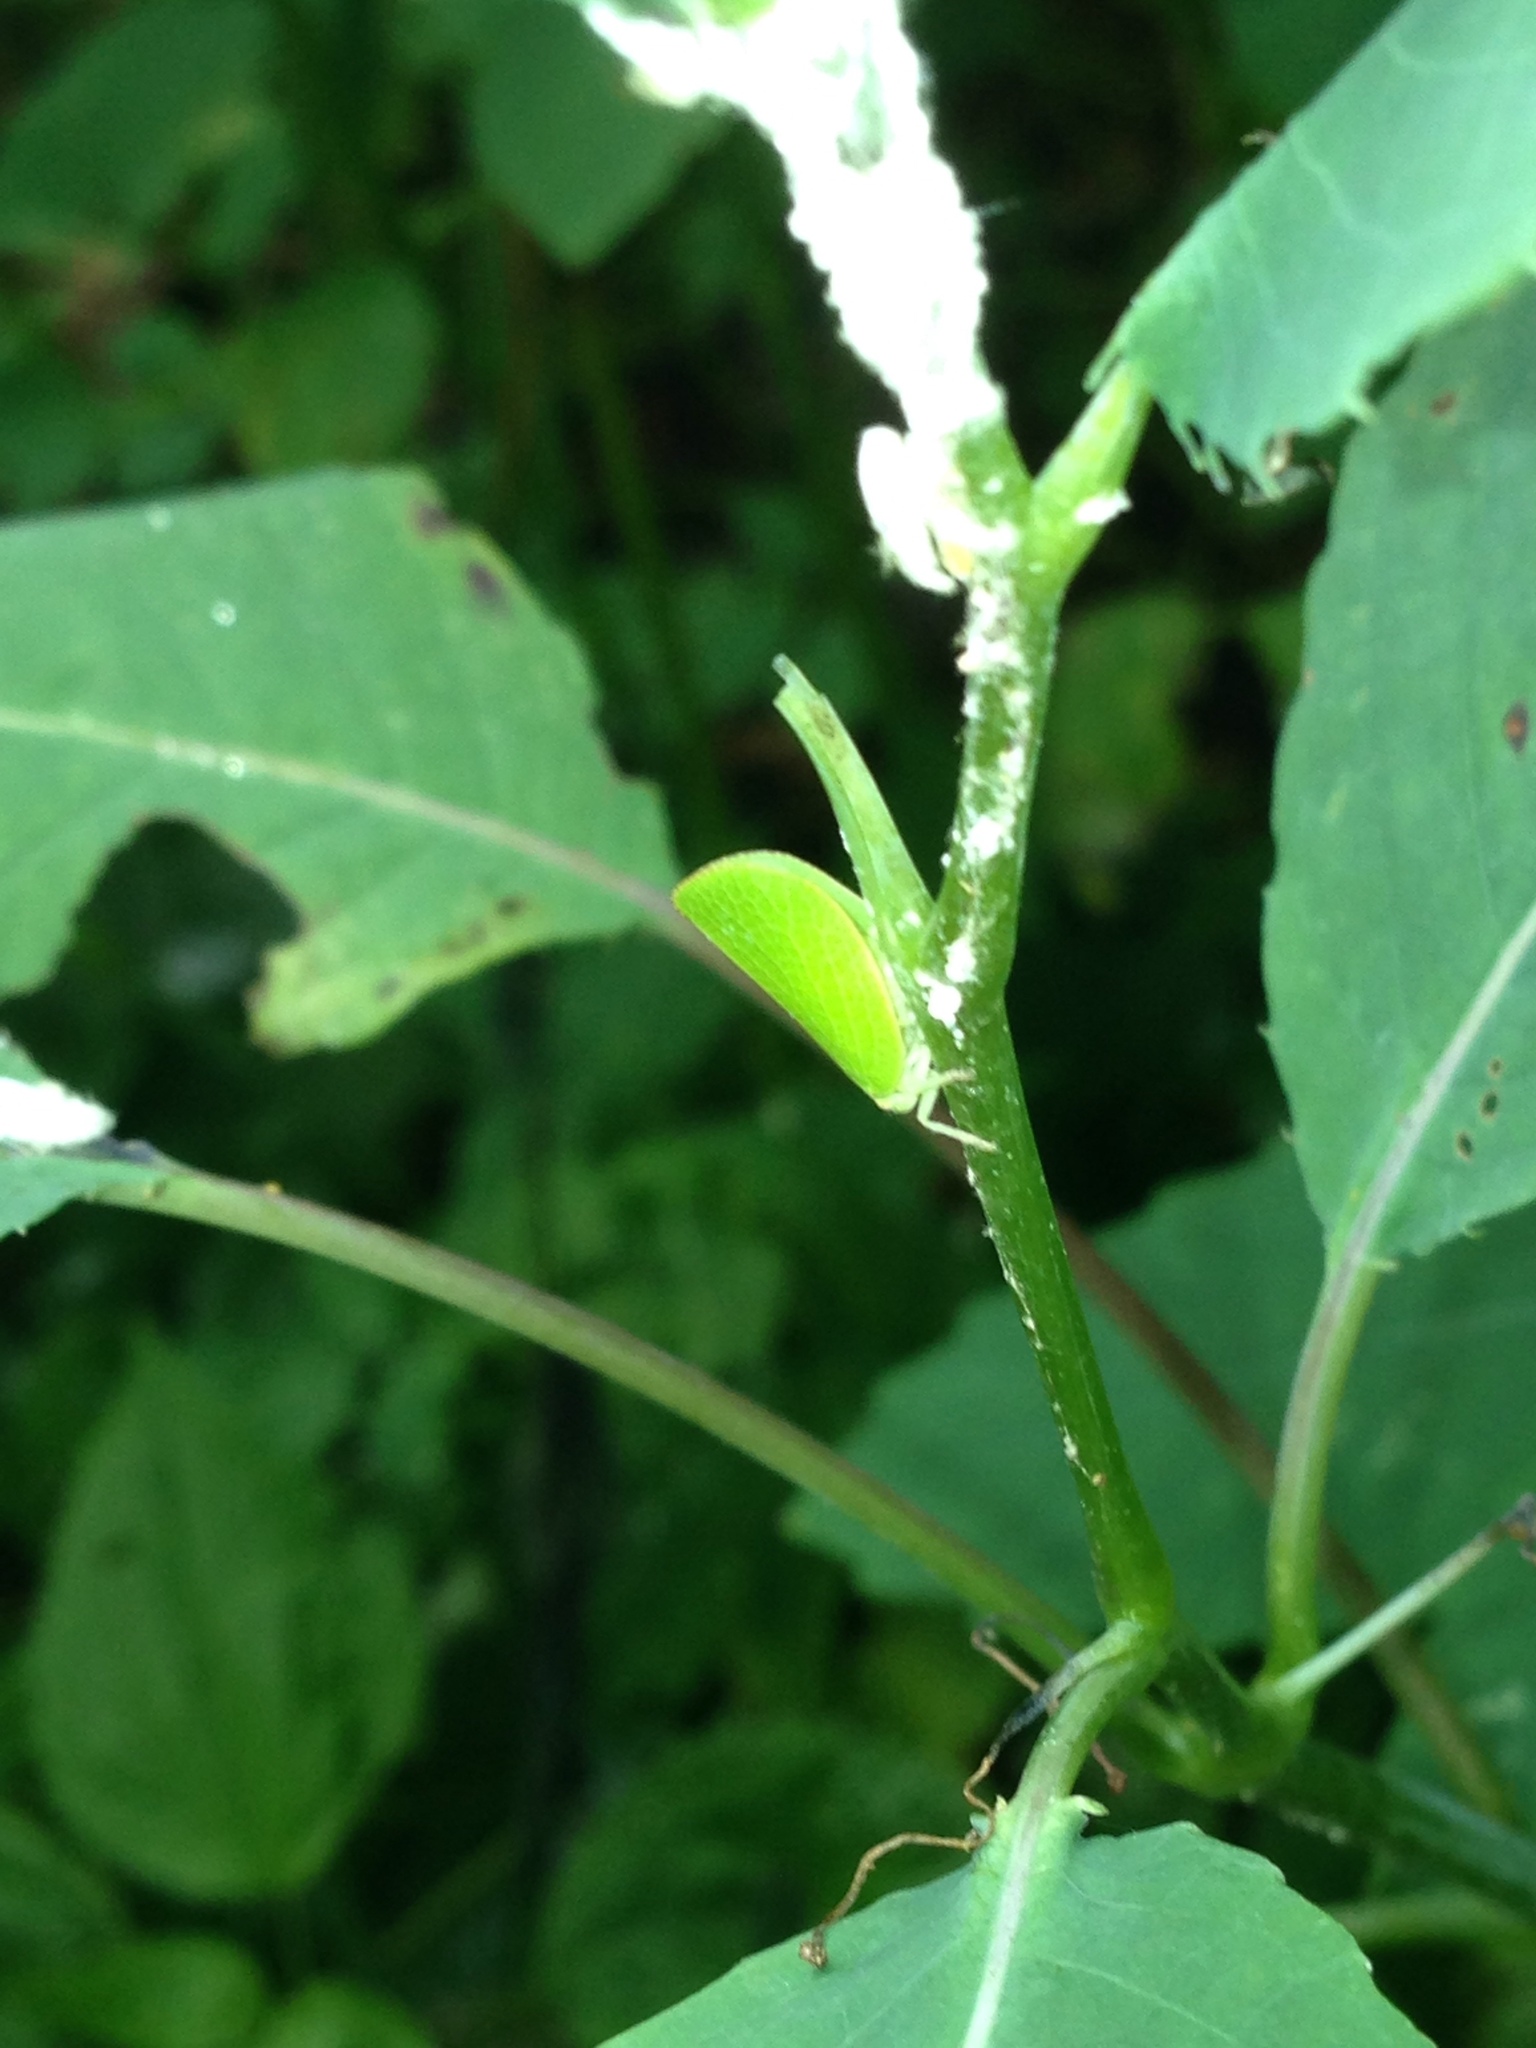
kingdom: Animalia
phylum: Arthropoda
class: Insecta
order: Hemiptera
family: Acanaloniidae
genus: Acanalonia
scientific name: Acanalonia conica
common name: Green cone-headed planthopper
